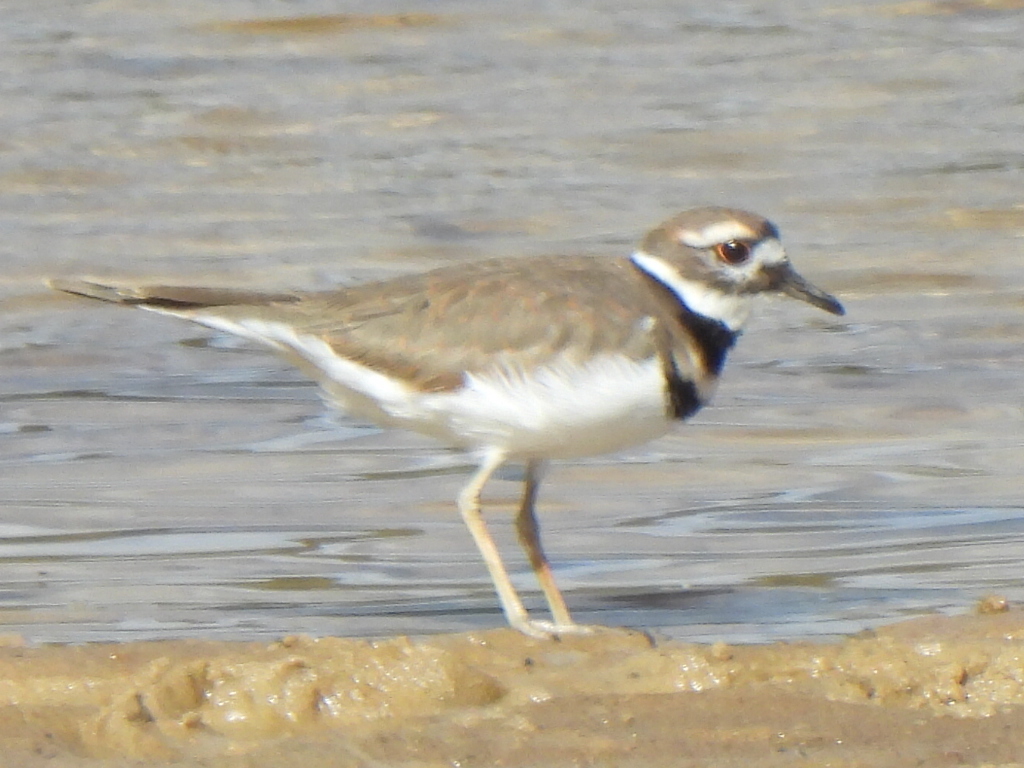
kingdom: Animalia
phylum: Chordata
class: Aves
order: Charadriiformes
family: Charadriidae
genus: Charadrius
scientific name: Charadrius vociferus
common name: Killdeer
